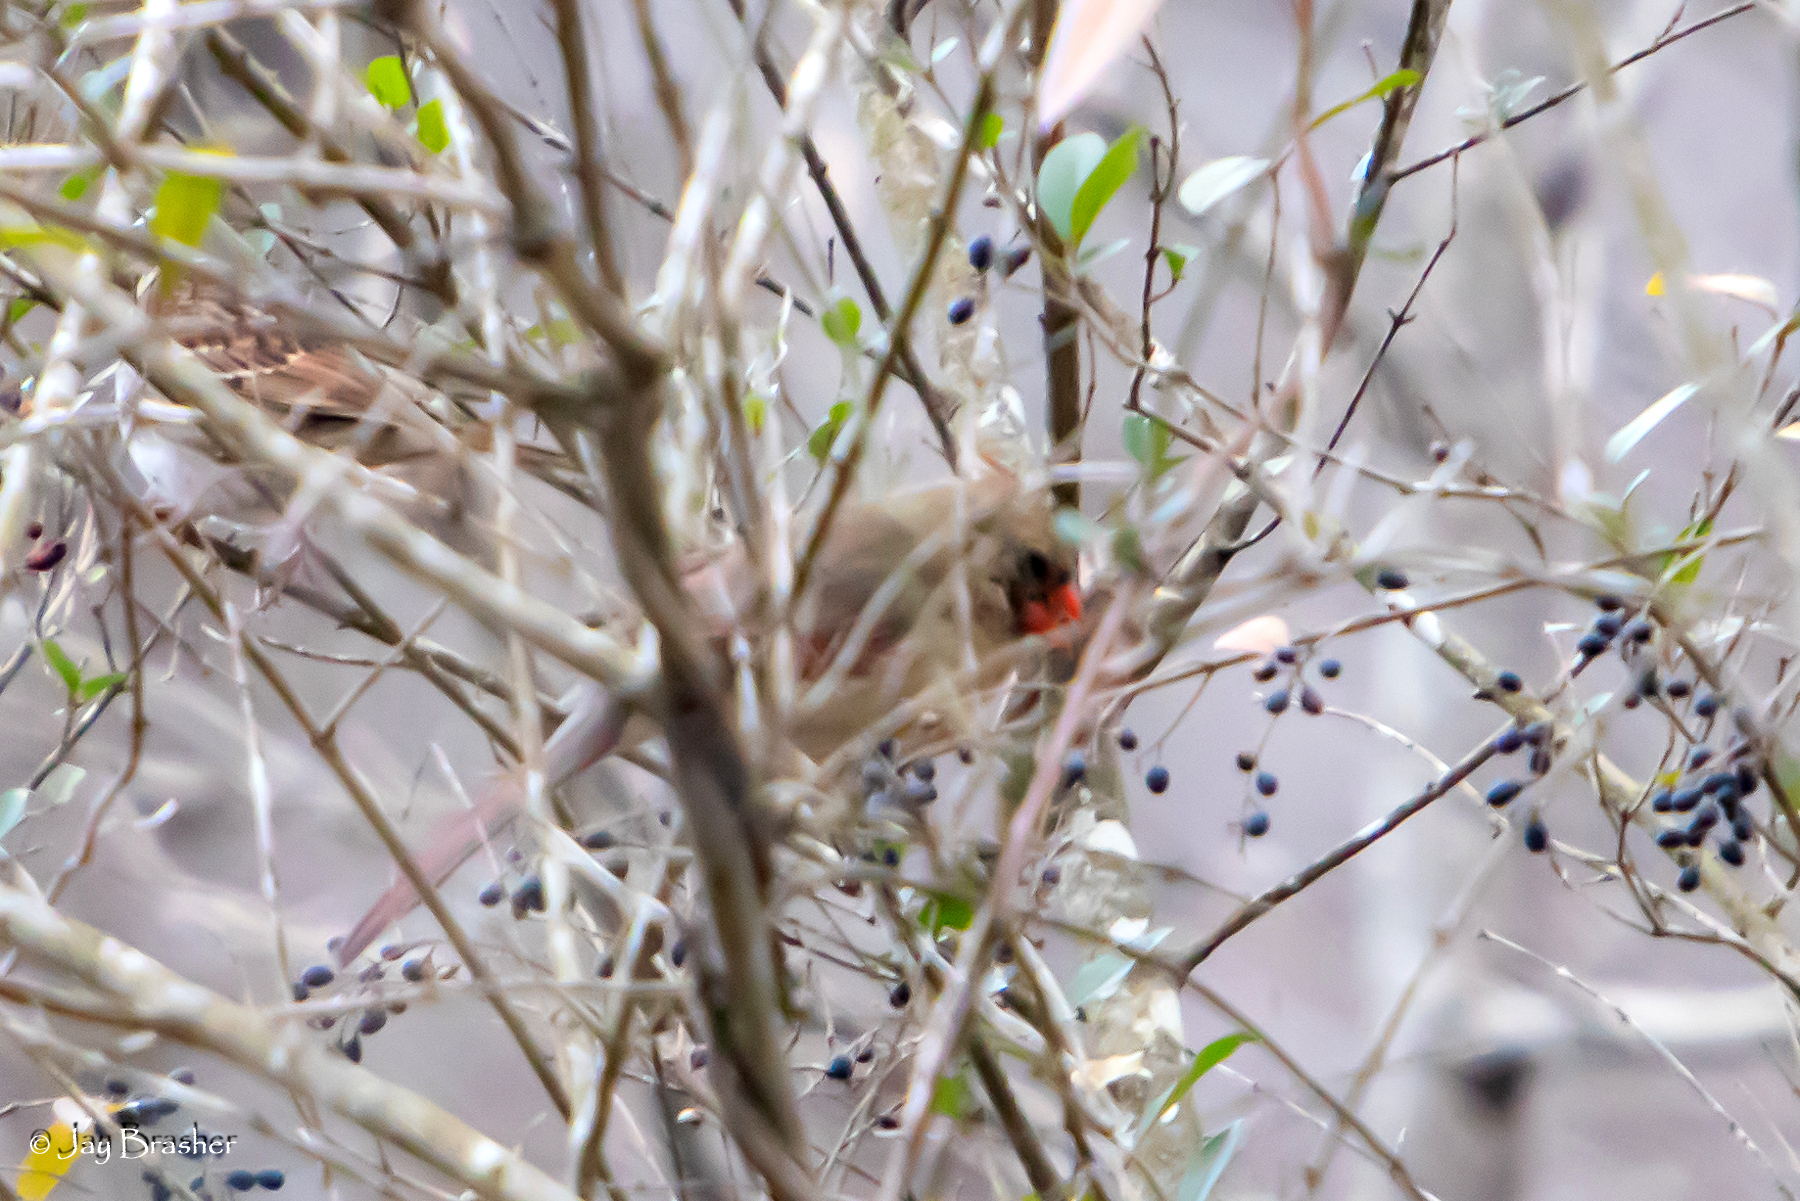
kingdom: Animalia
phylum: Chordata
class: Aves
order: Passeriformes
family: Cardinalidae
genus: Cardinalis
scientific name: Cardinalis cardinalis
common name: Northern cardinal
